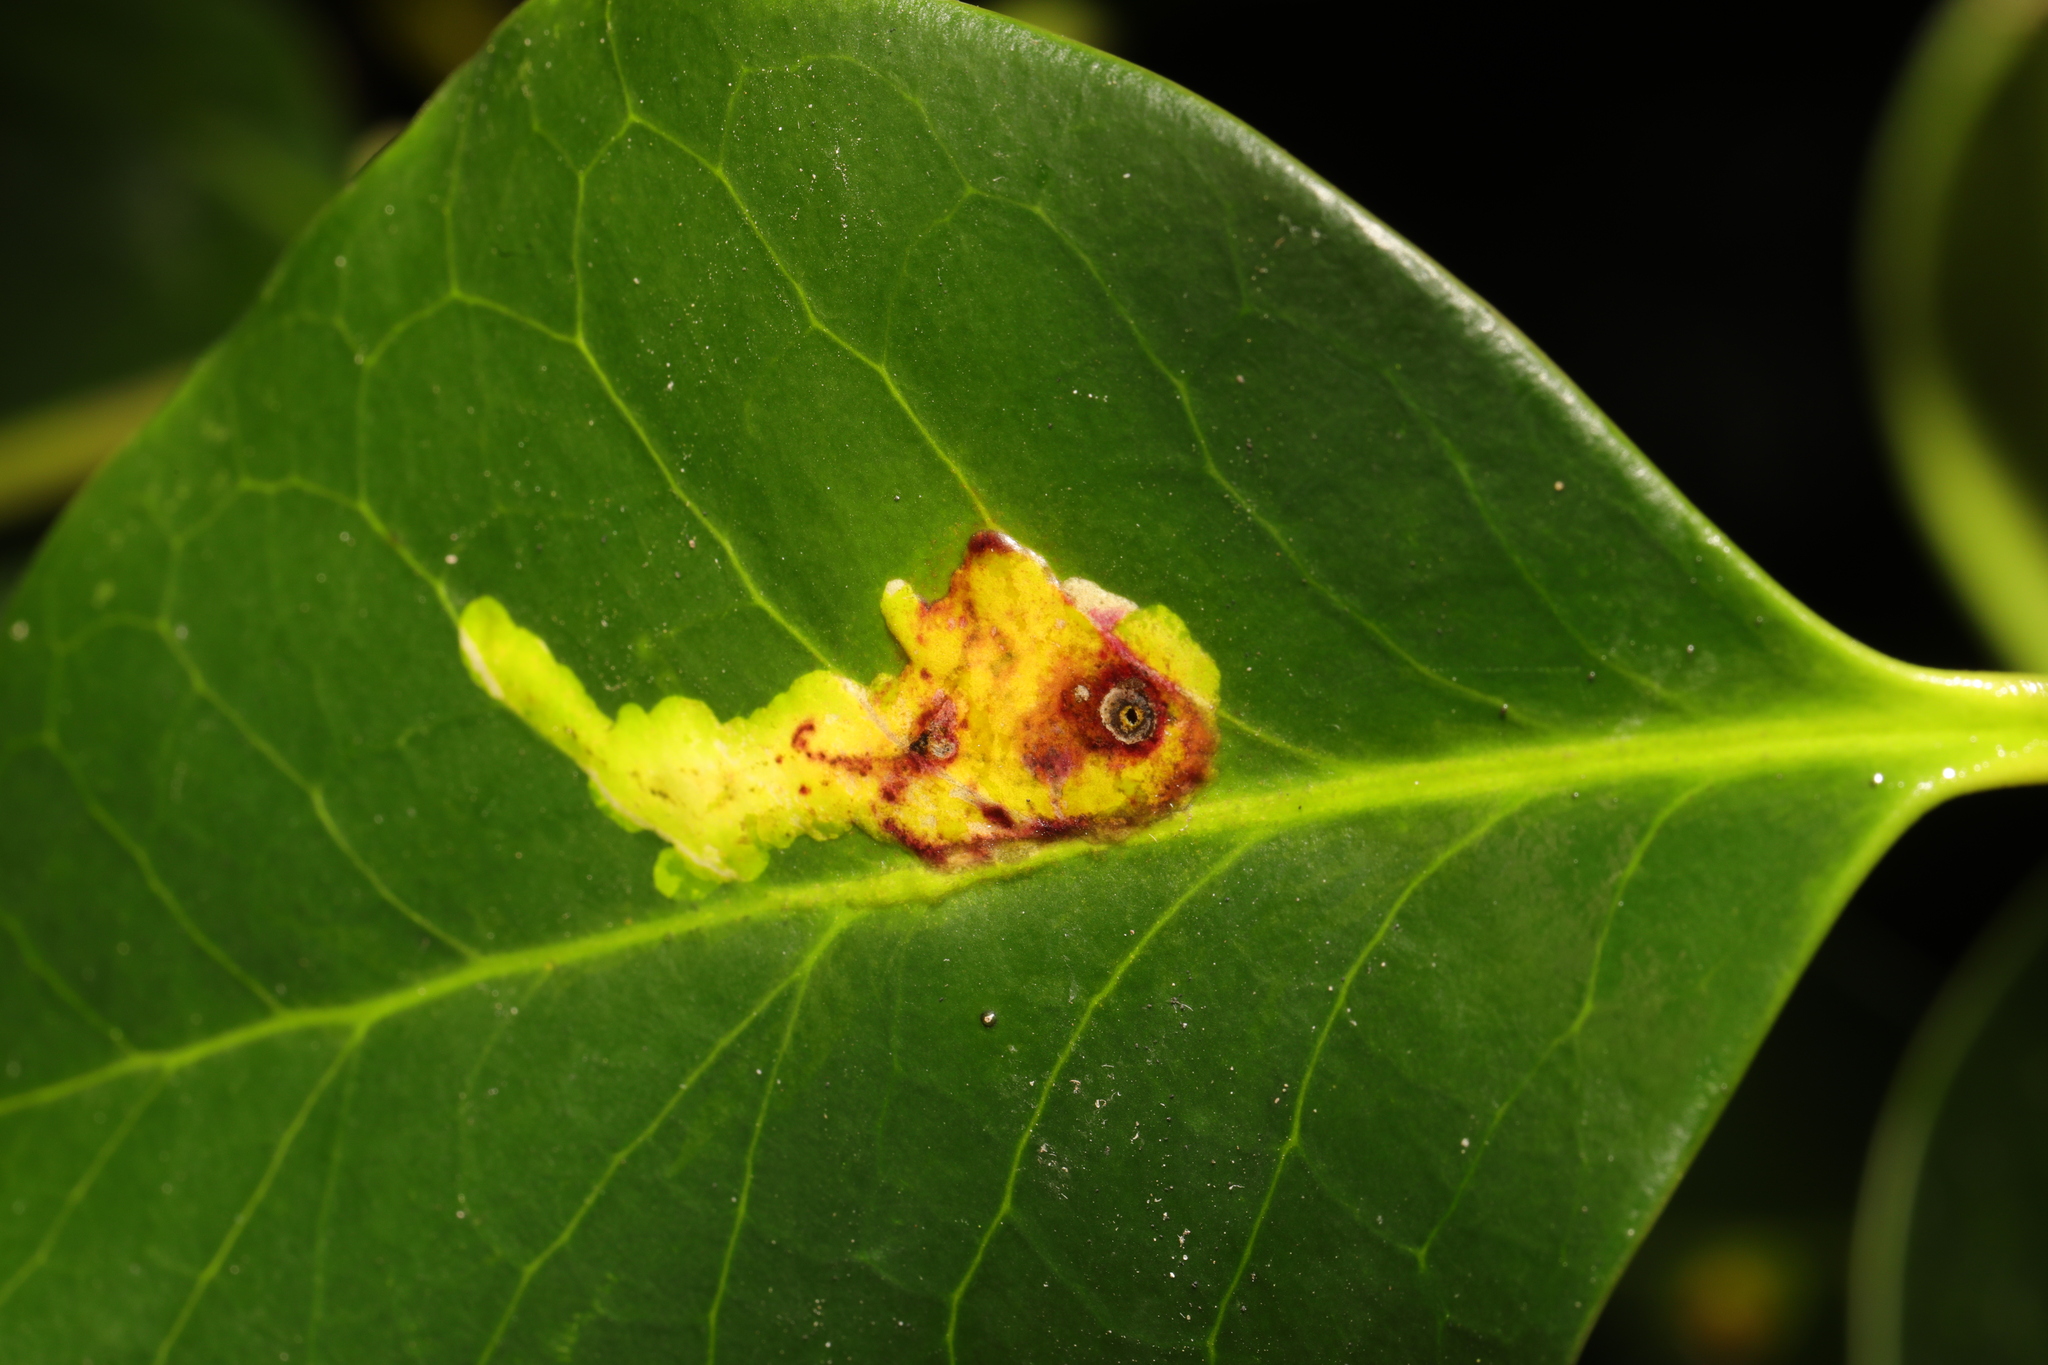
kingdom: Animalia
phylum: Arthropoda
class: Insecta
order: Diptera
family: Agromyzidae
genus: Phytomyza
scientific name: Phytomyza ilicis
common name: Holly leafminer
